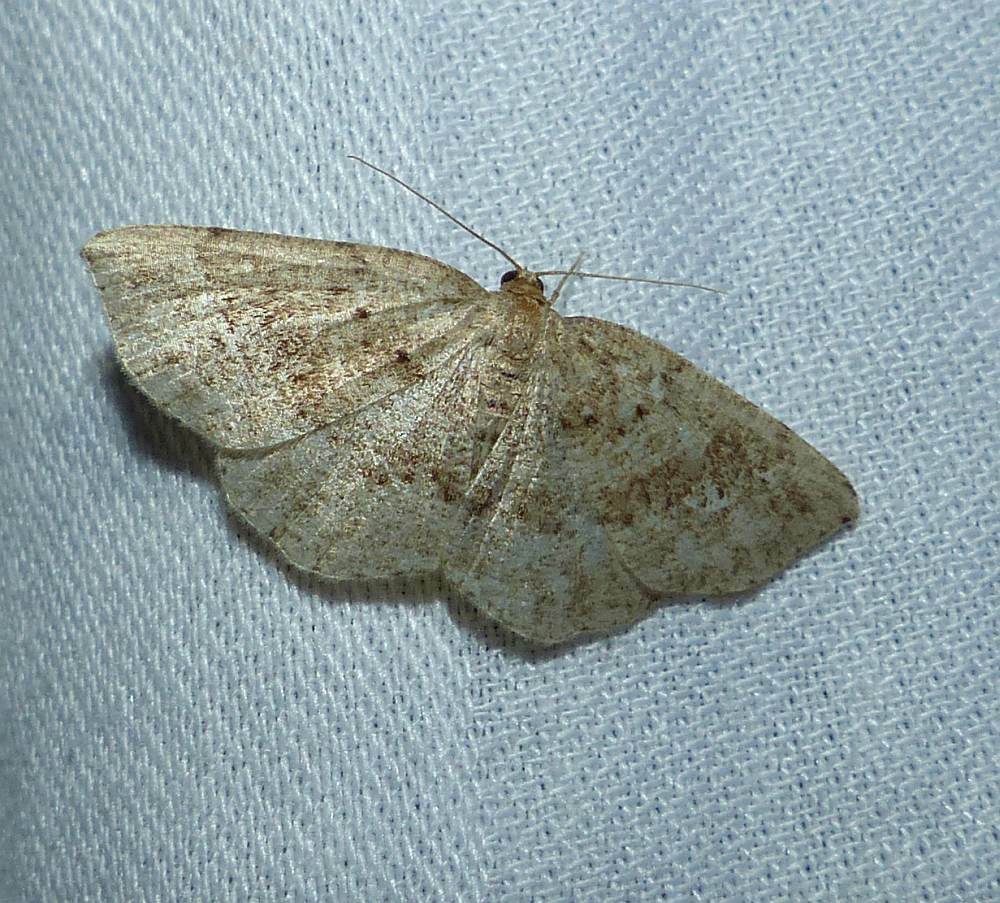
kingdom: Animalia
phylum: Arthropoda
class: Insecta
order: Lepidoptera
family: Geometridae
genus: Homochlodes
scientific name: Homochlodes fritillaria
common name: Pale homochlodes
